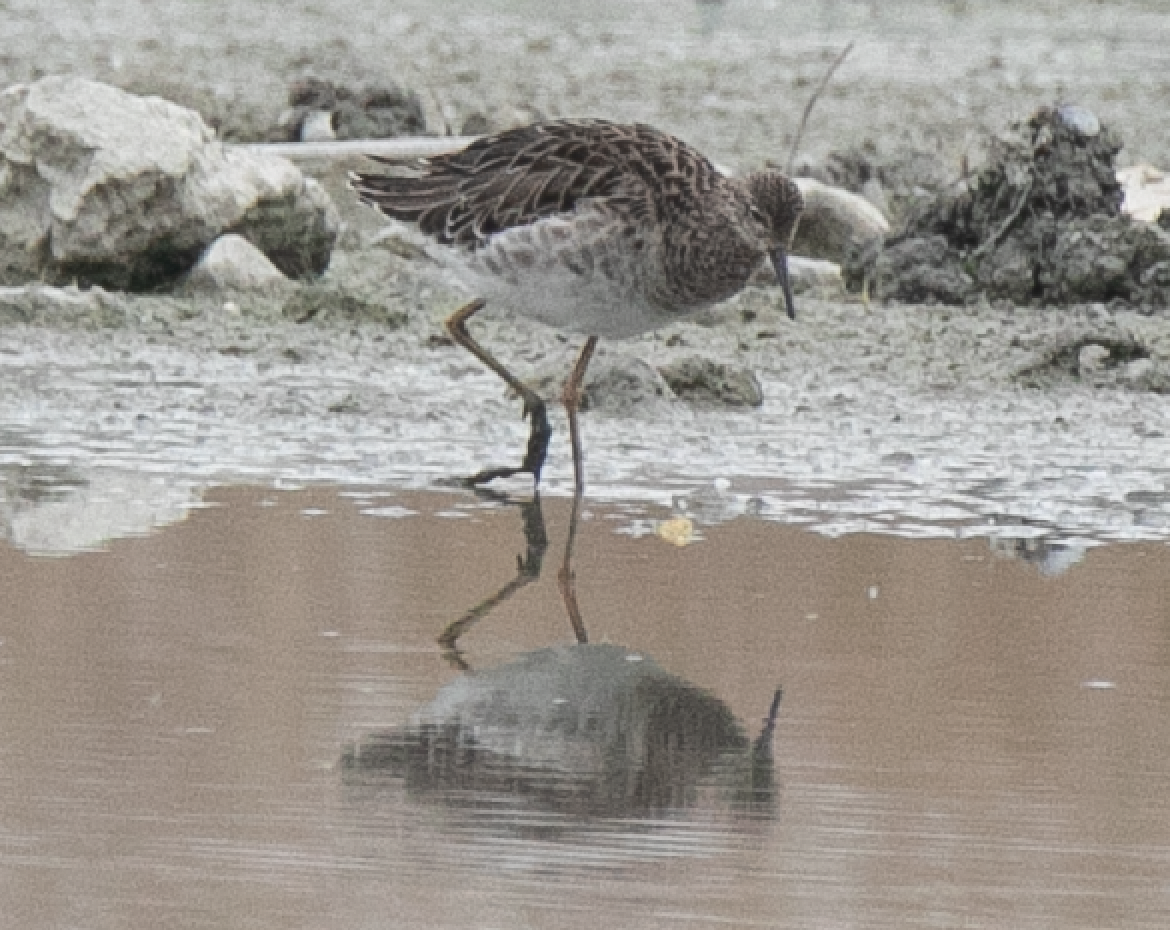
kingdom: Animalia
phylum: Chordata
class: Aves
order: Charadriiformes
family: Scolopacidae
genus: Calidris
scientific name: Calidris pugnax
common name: Ruff
